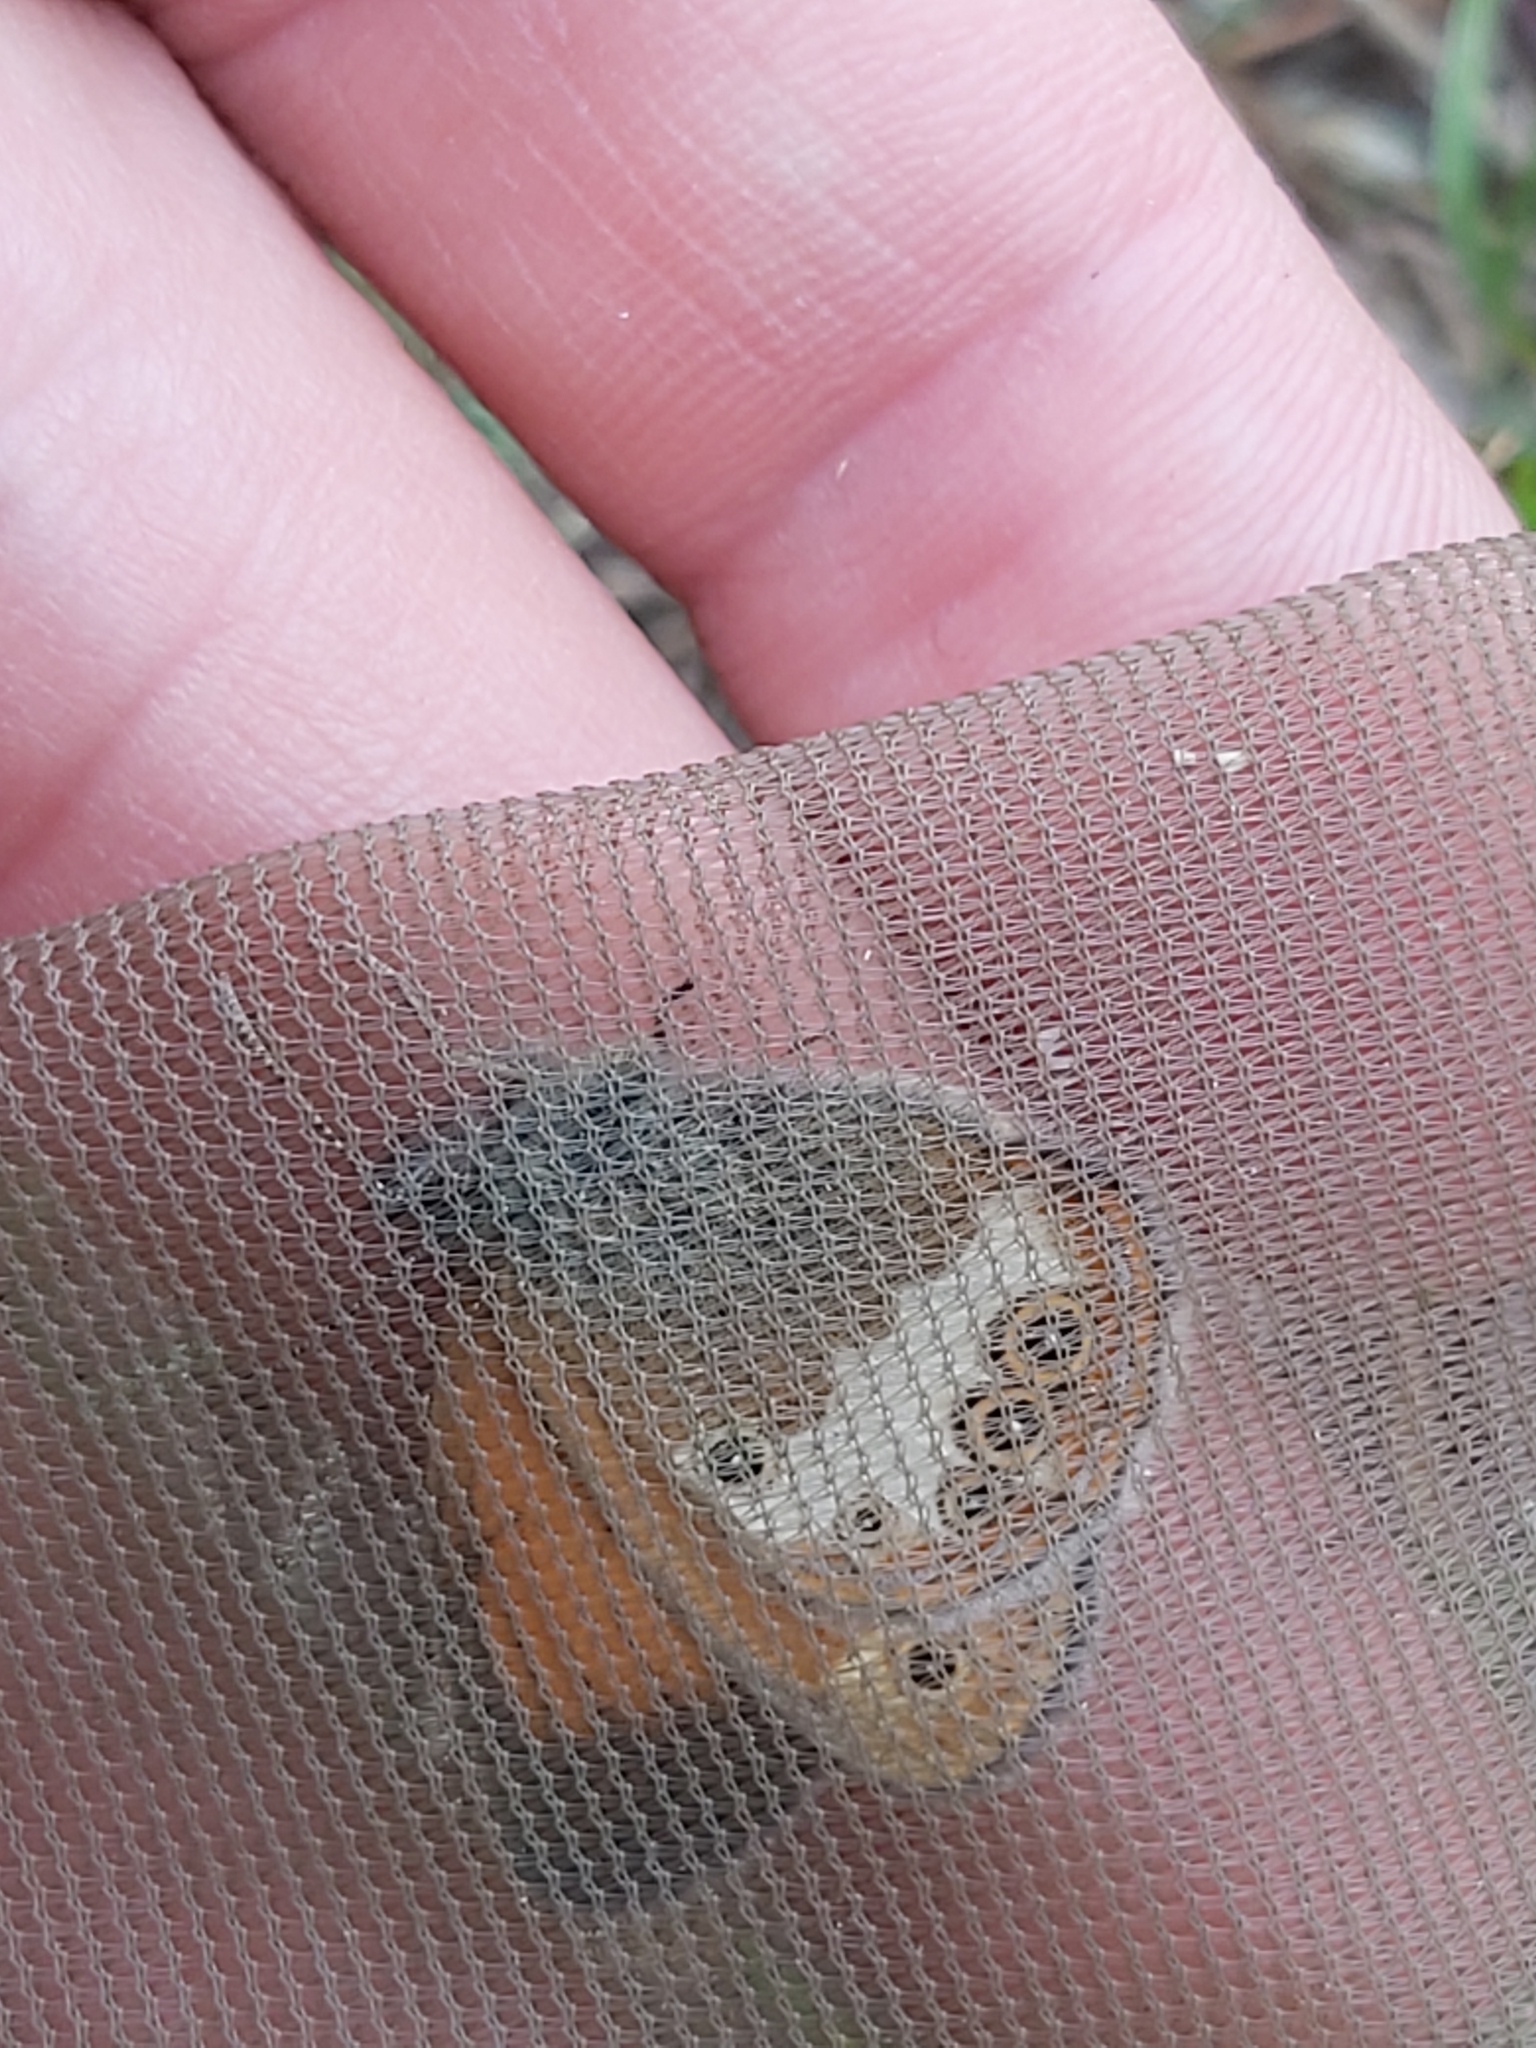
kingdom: Animalia
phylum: Arthropoda
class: Insecta
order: Lepidoptera
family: Nymphalidae
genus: Coenonympha
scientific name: Coenonympha arcania
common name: Pearly heath
